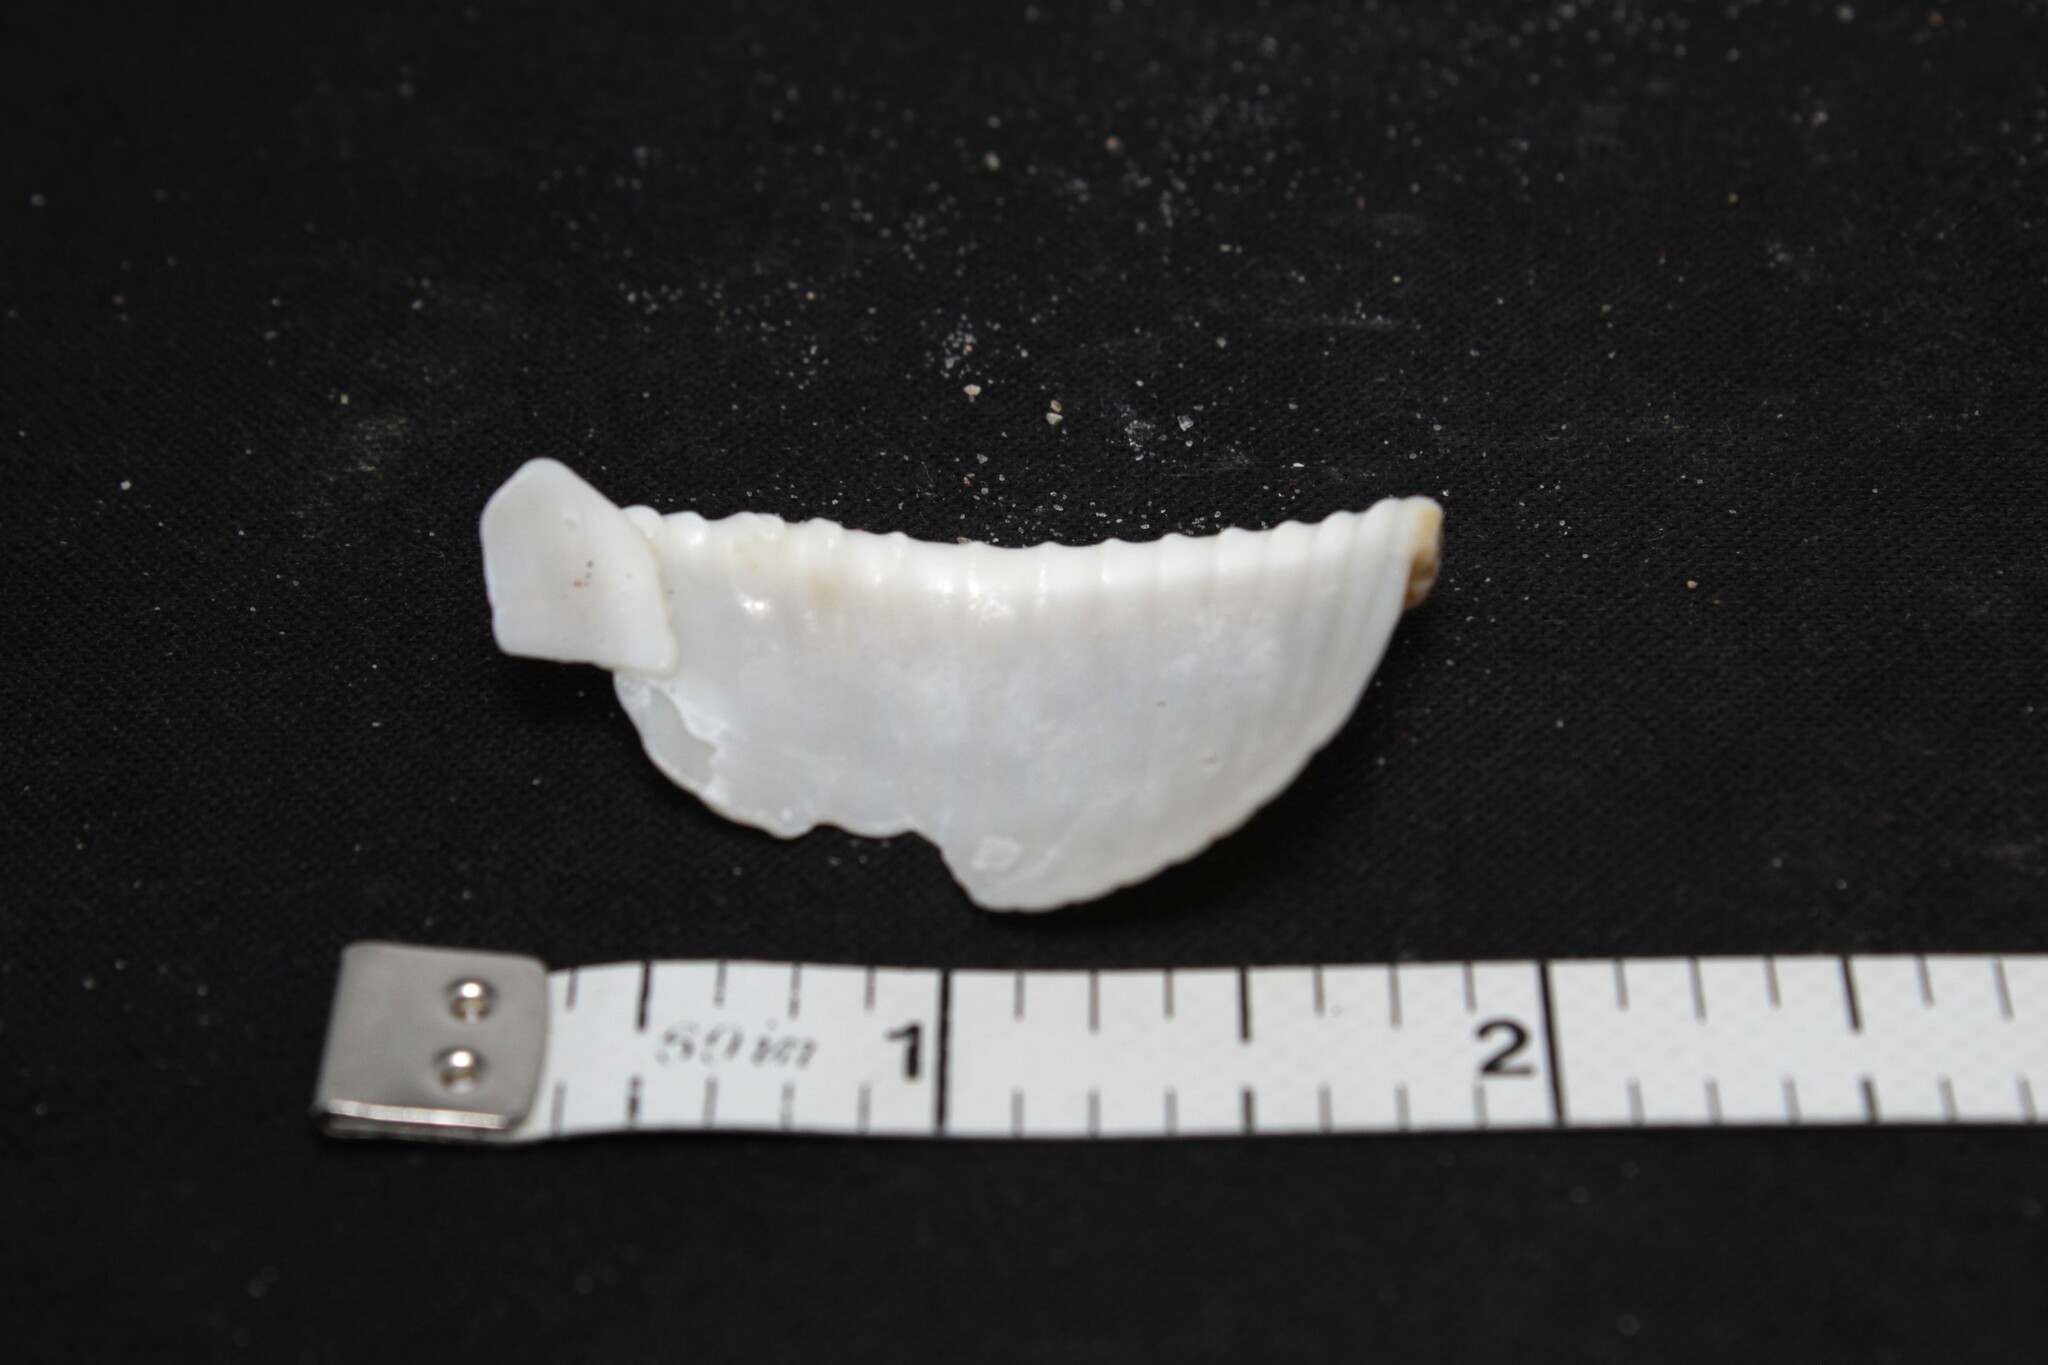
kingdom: Animalia
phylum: Mollusca
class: Gastropoda
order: Littorinimorpha
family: Cassidae
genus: Semicassis
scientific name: Semicassis granulata
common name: Scotch bonnet
